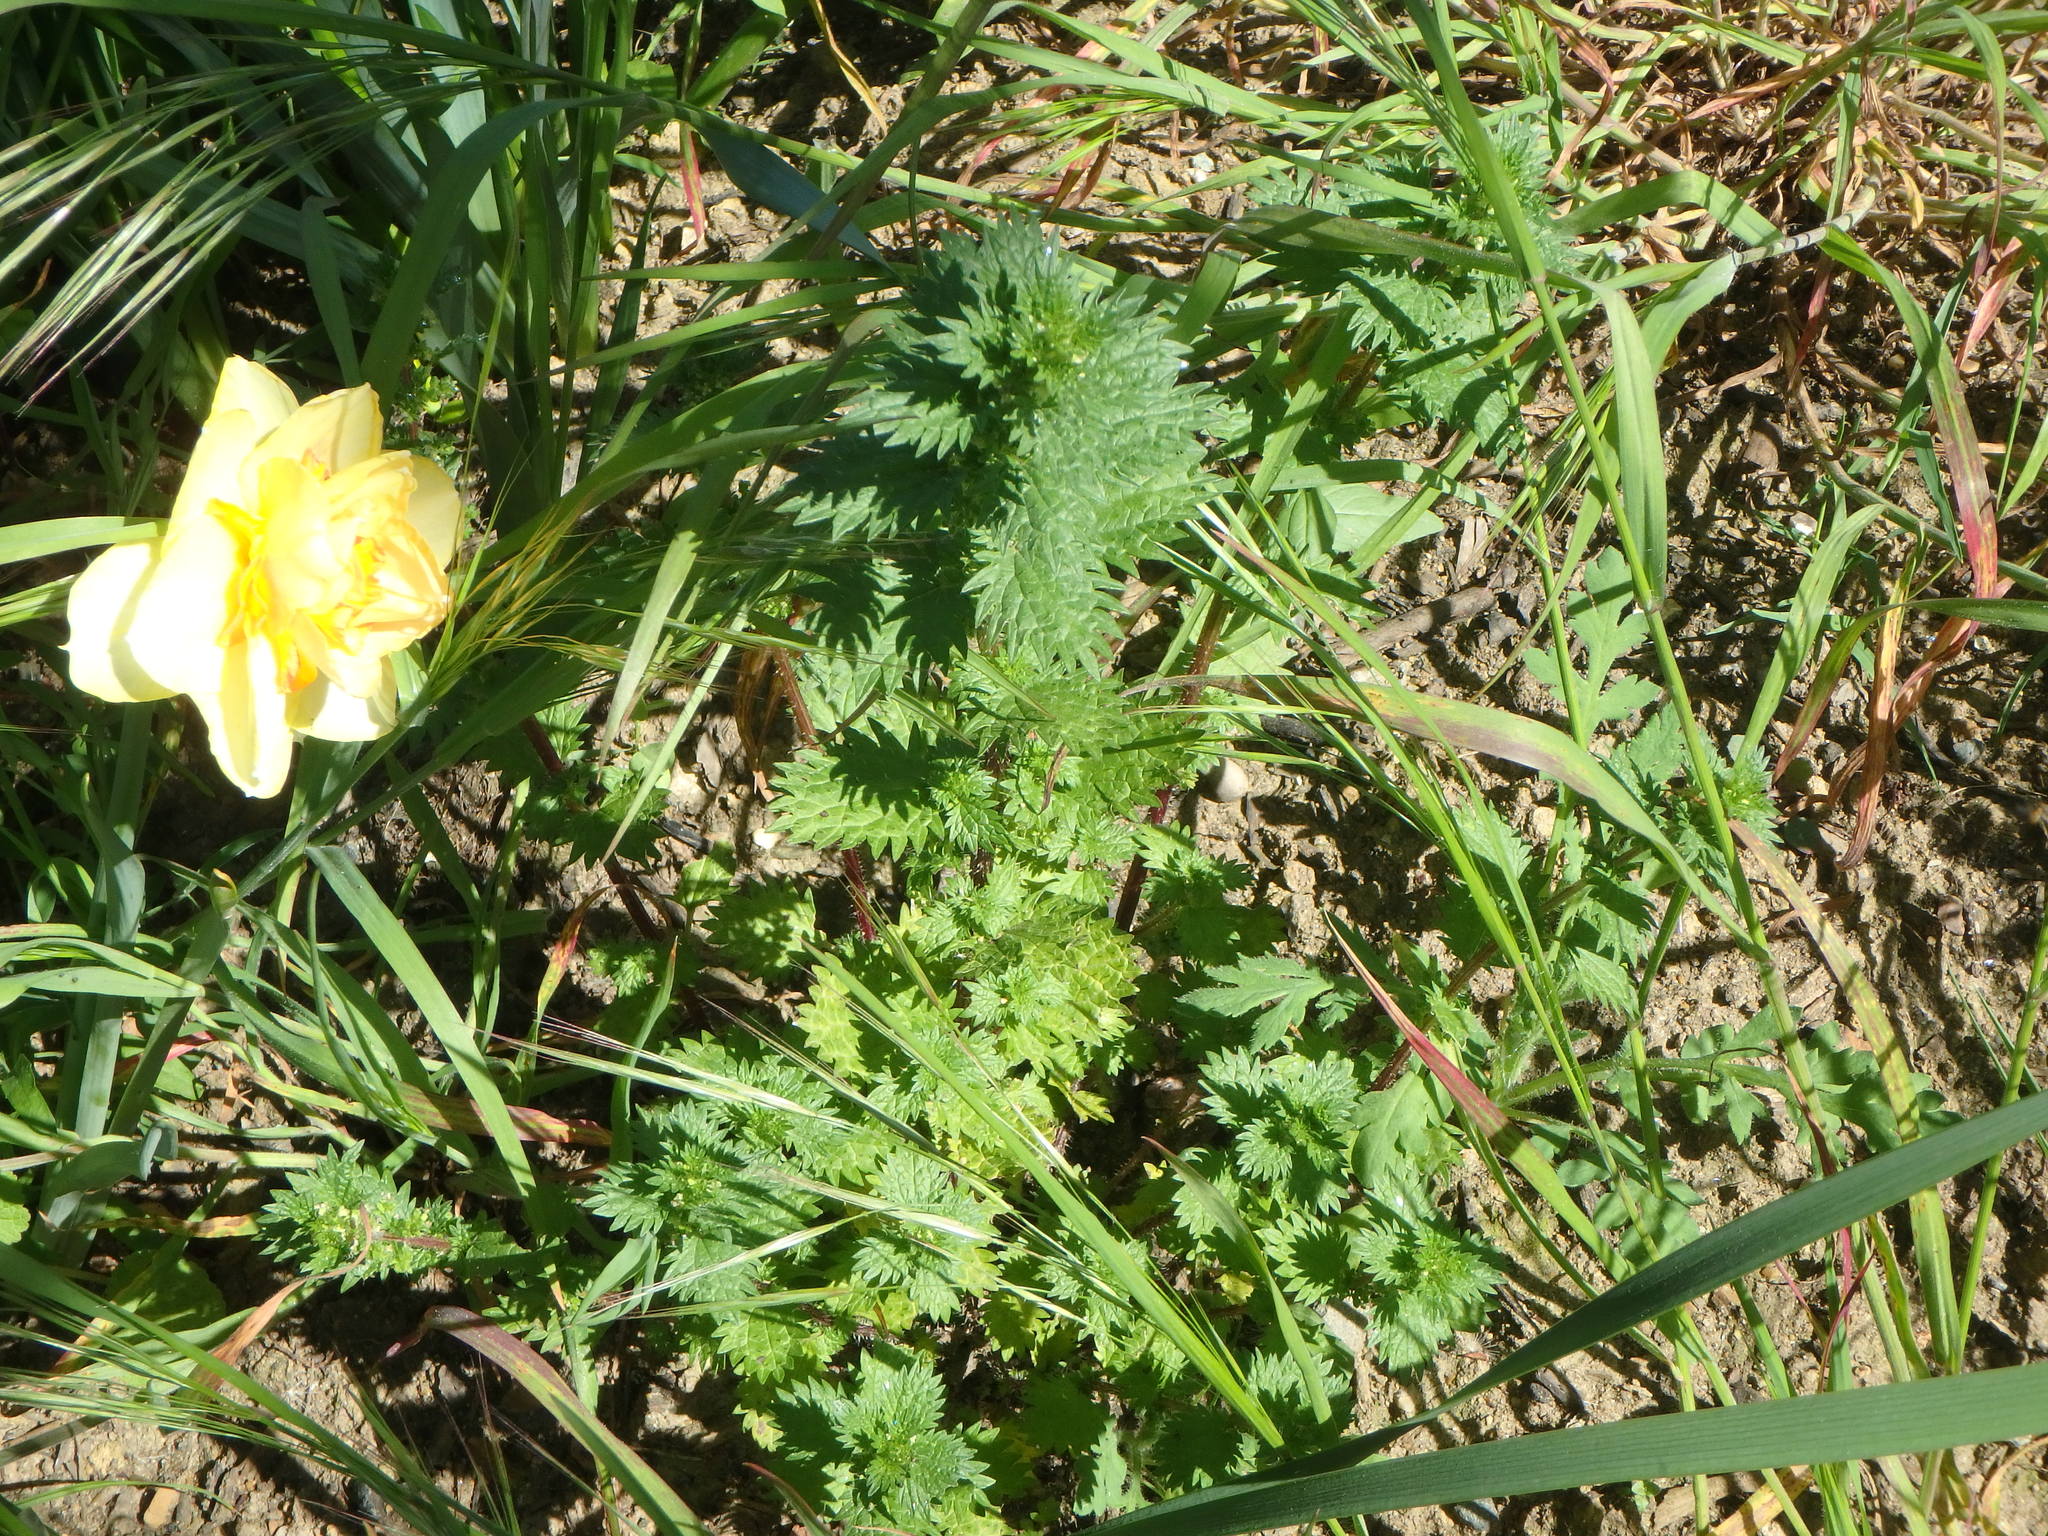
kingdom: Plantae
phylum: Tracheophyta
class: Magnoliopsida
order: Rosales
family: Urticaceae
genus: Urtica
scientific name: Urtica urens
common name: Dwarf nettle
